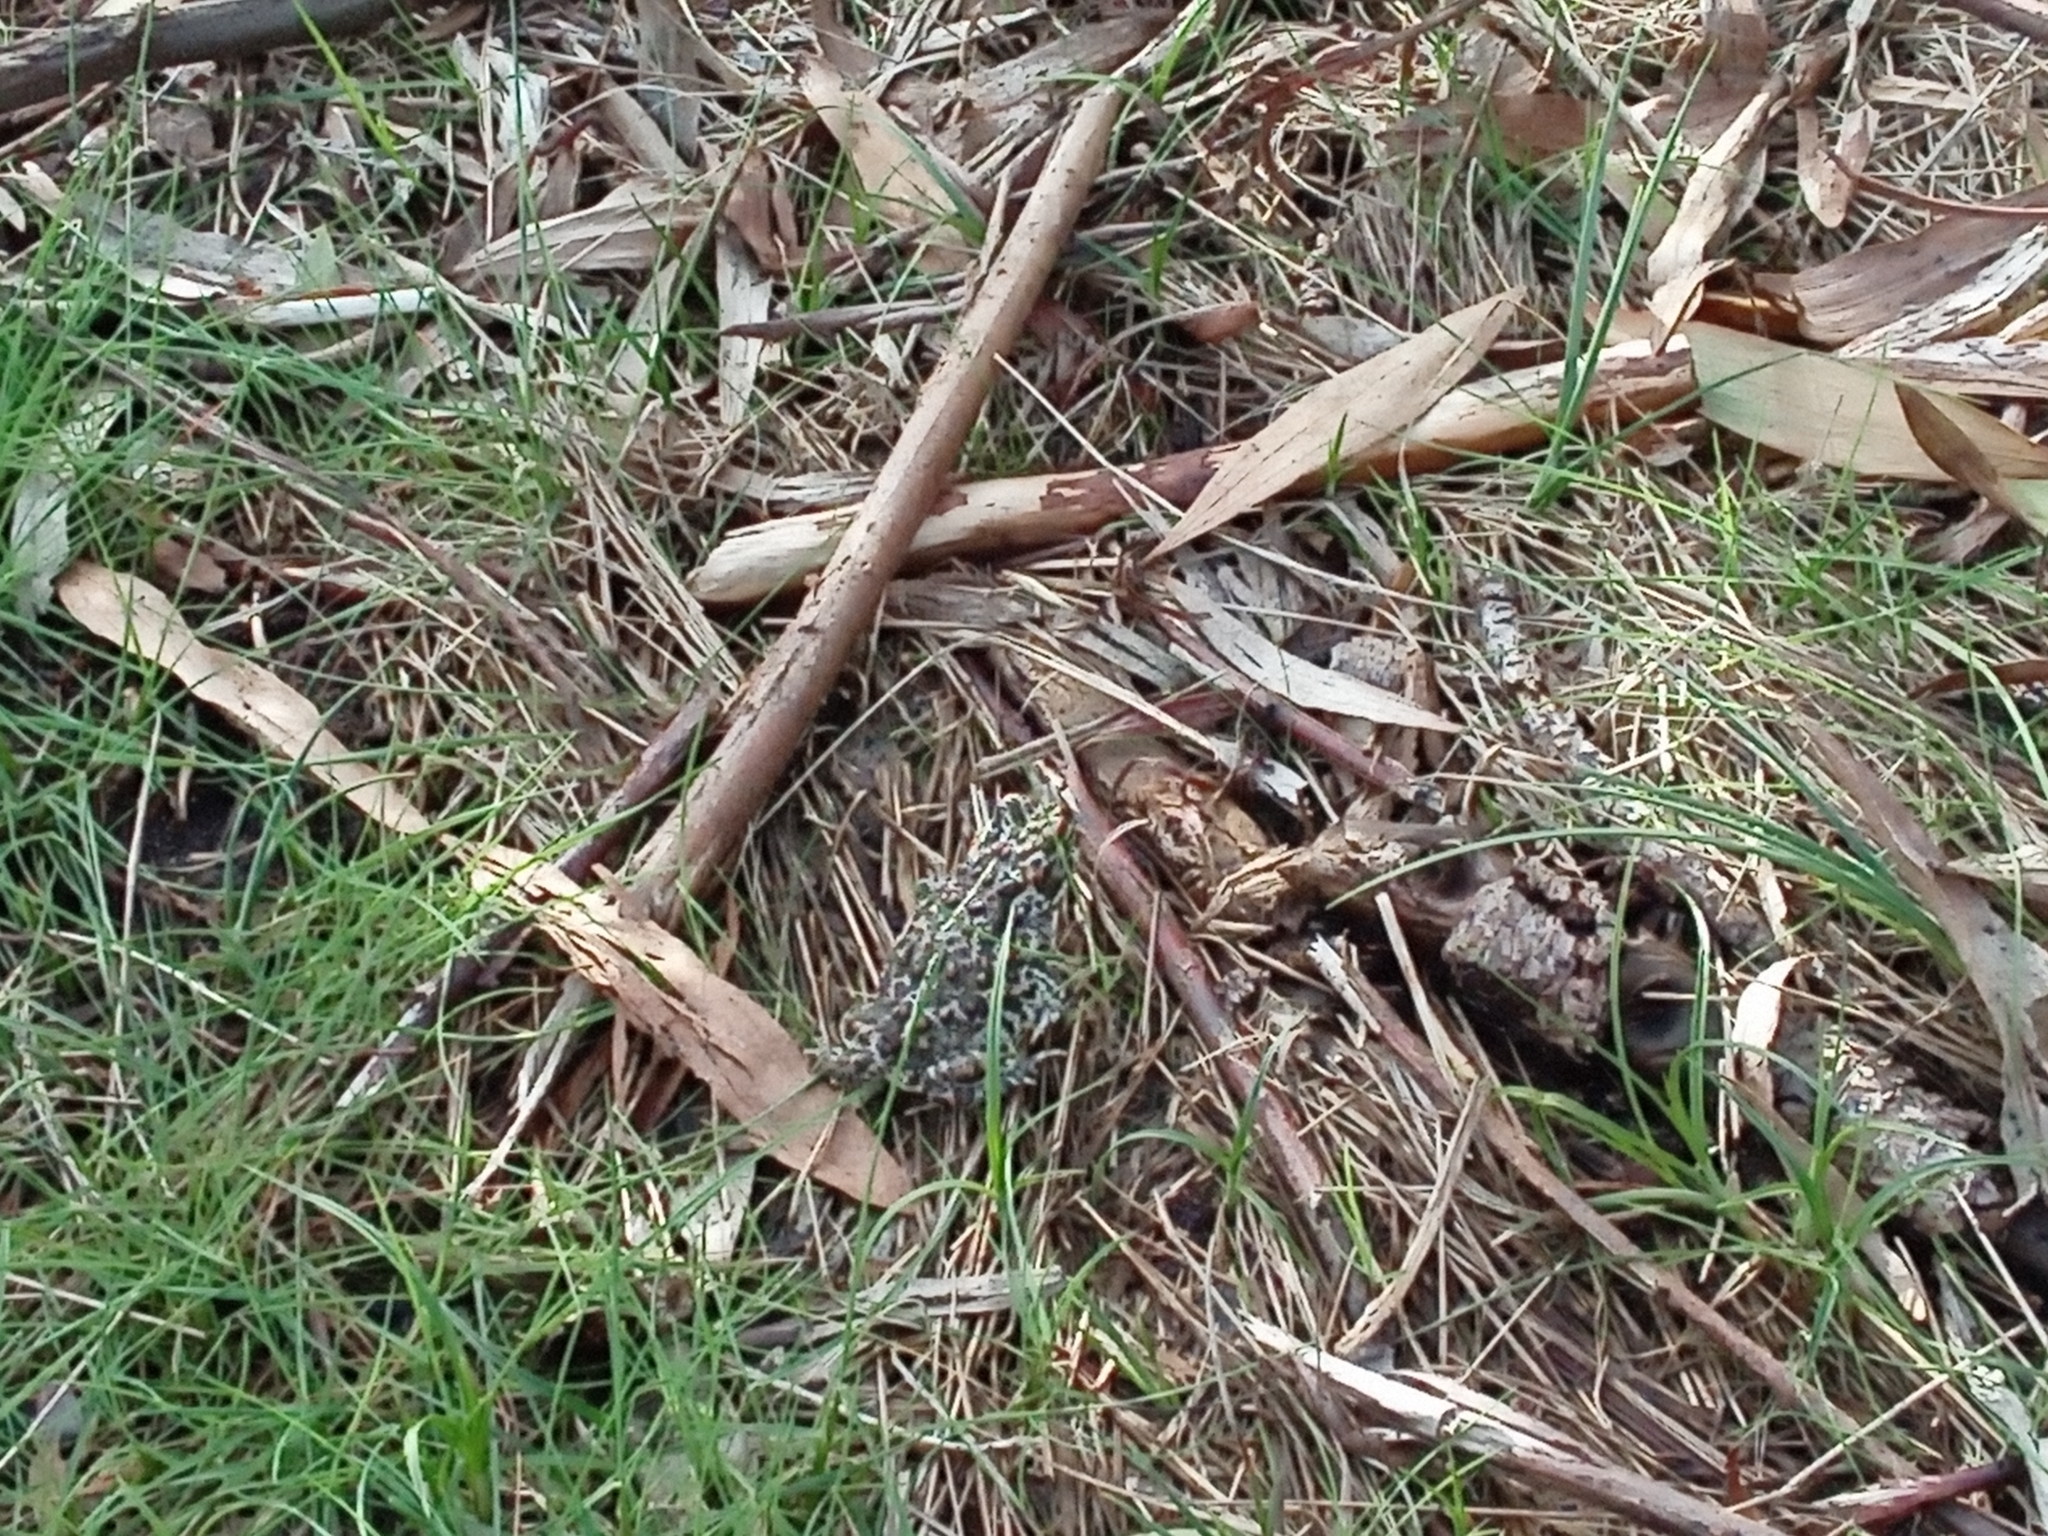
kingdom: Animalia
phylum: Chordata
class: Amphibia
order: Anura
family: Bufonidae
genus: Epidalea
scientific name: Epidalea calamita
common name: Natterjack toad
